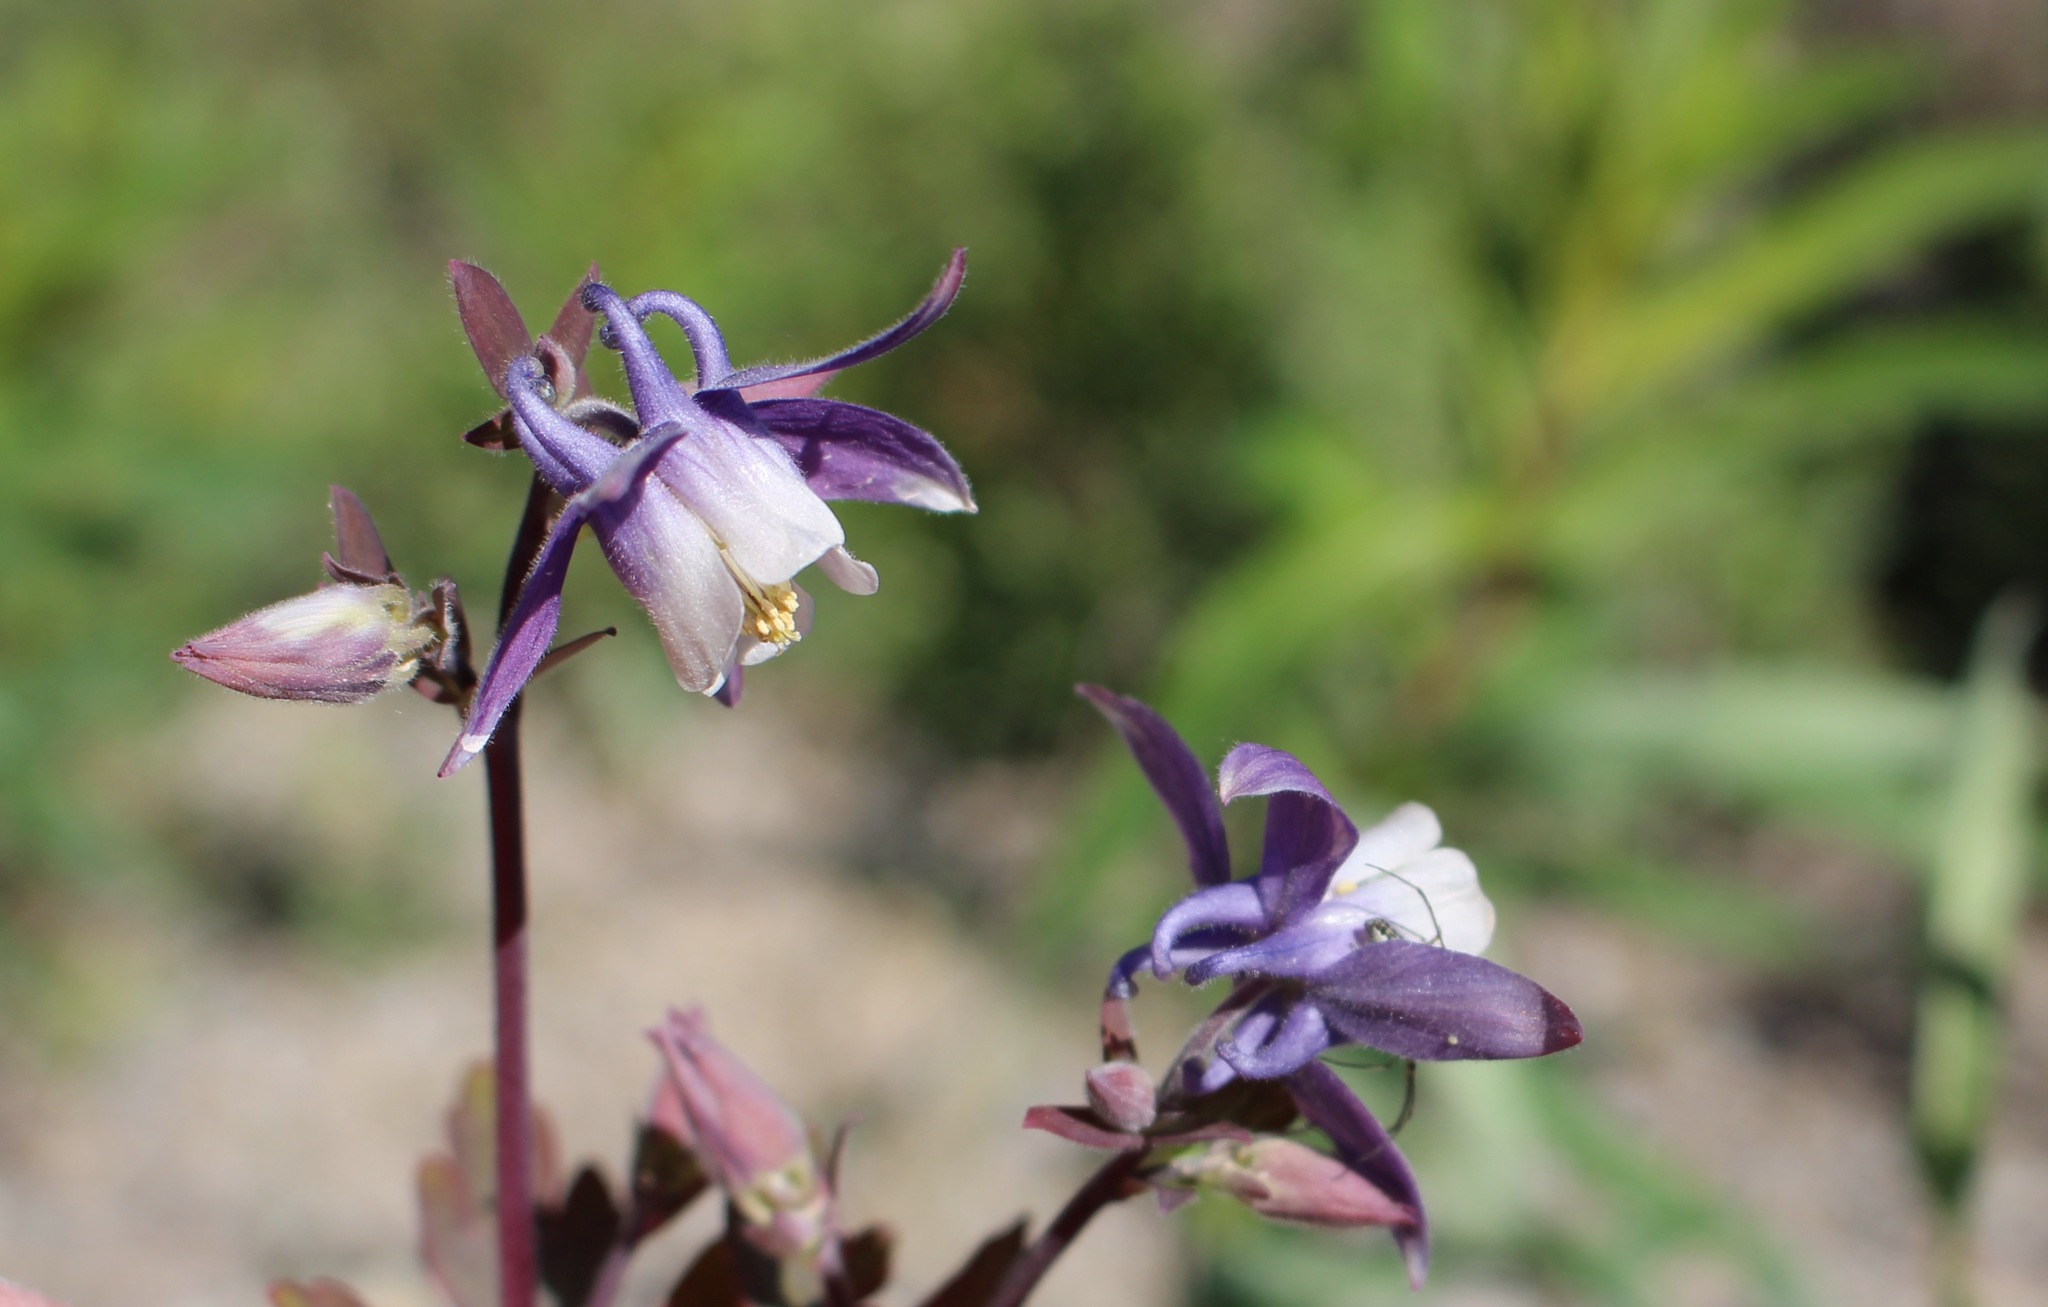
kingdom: Plantae
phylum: Tracheophyta
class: Magnoliopsida
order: Ranunculales
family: Ranunculaceae
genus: Aquilegia
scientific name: Aquilegia brevistyla
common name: Yukon columbine
